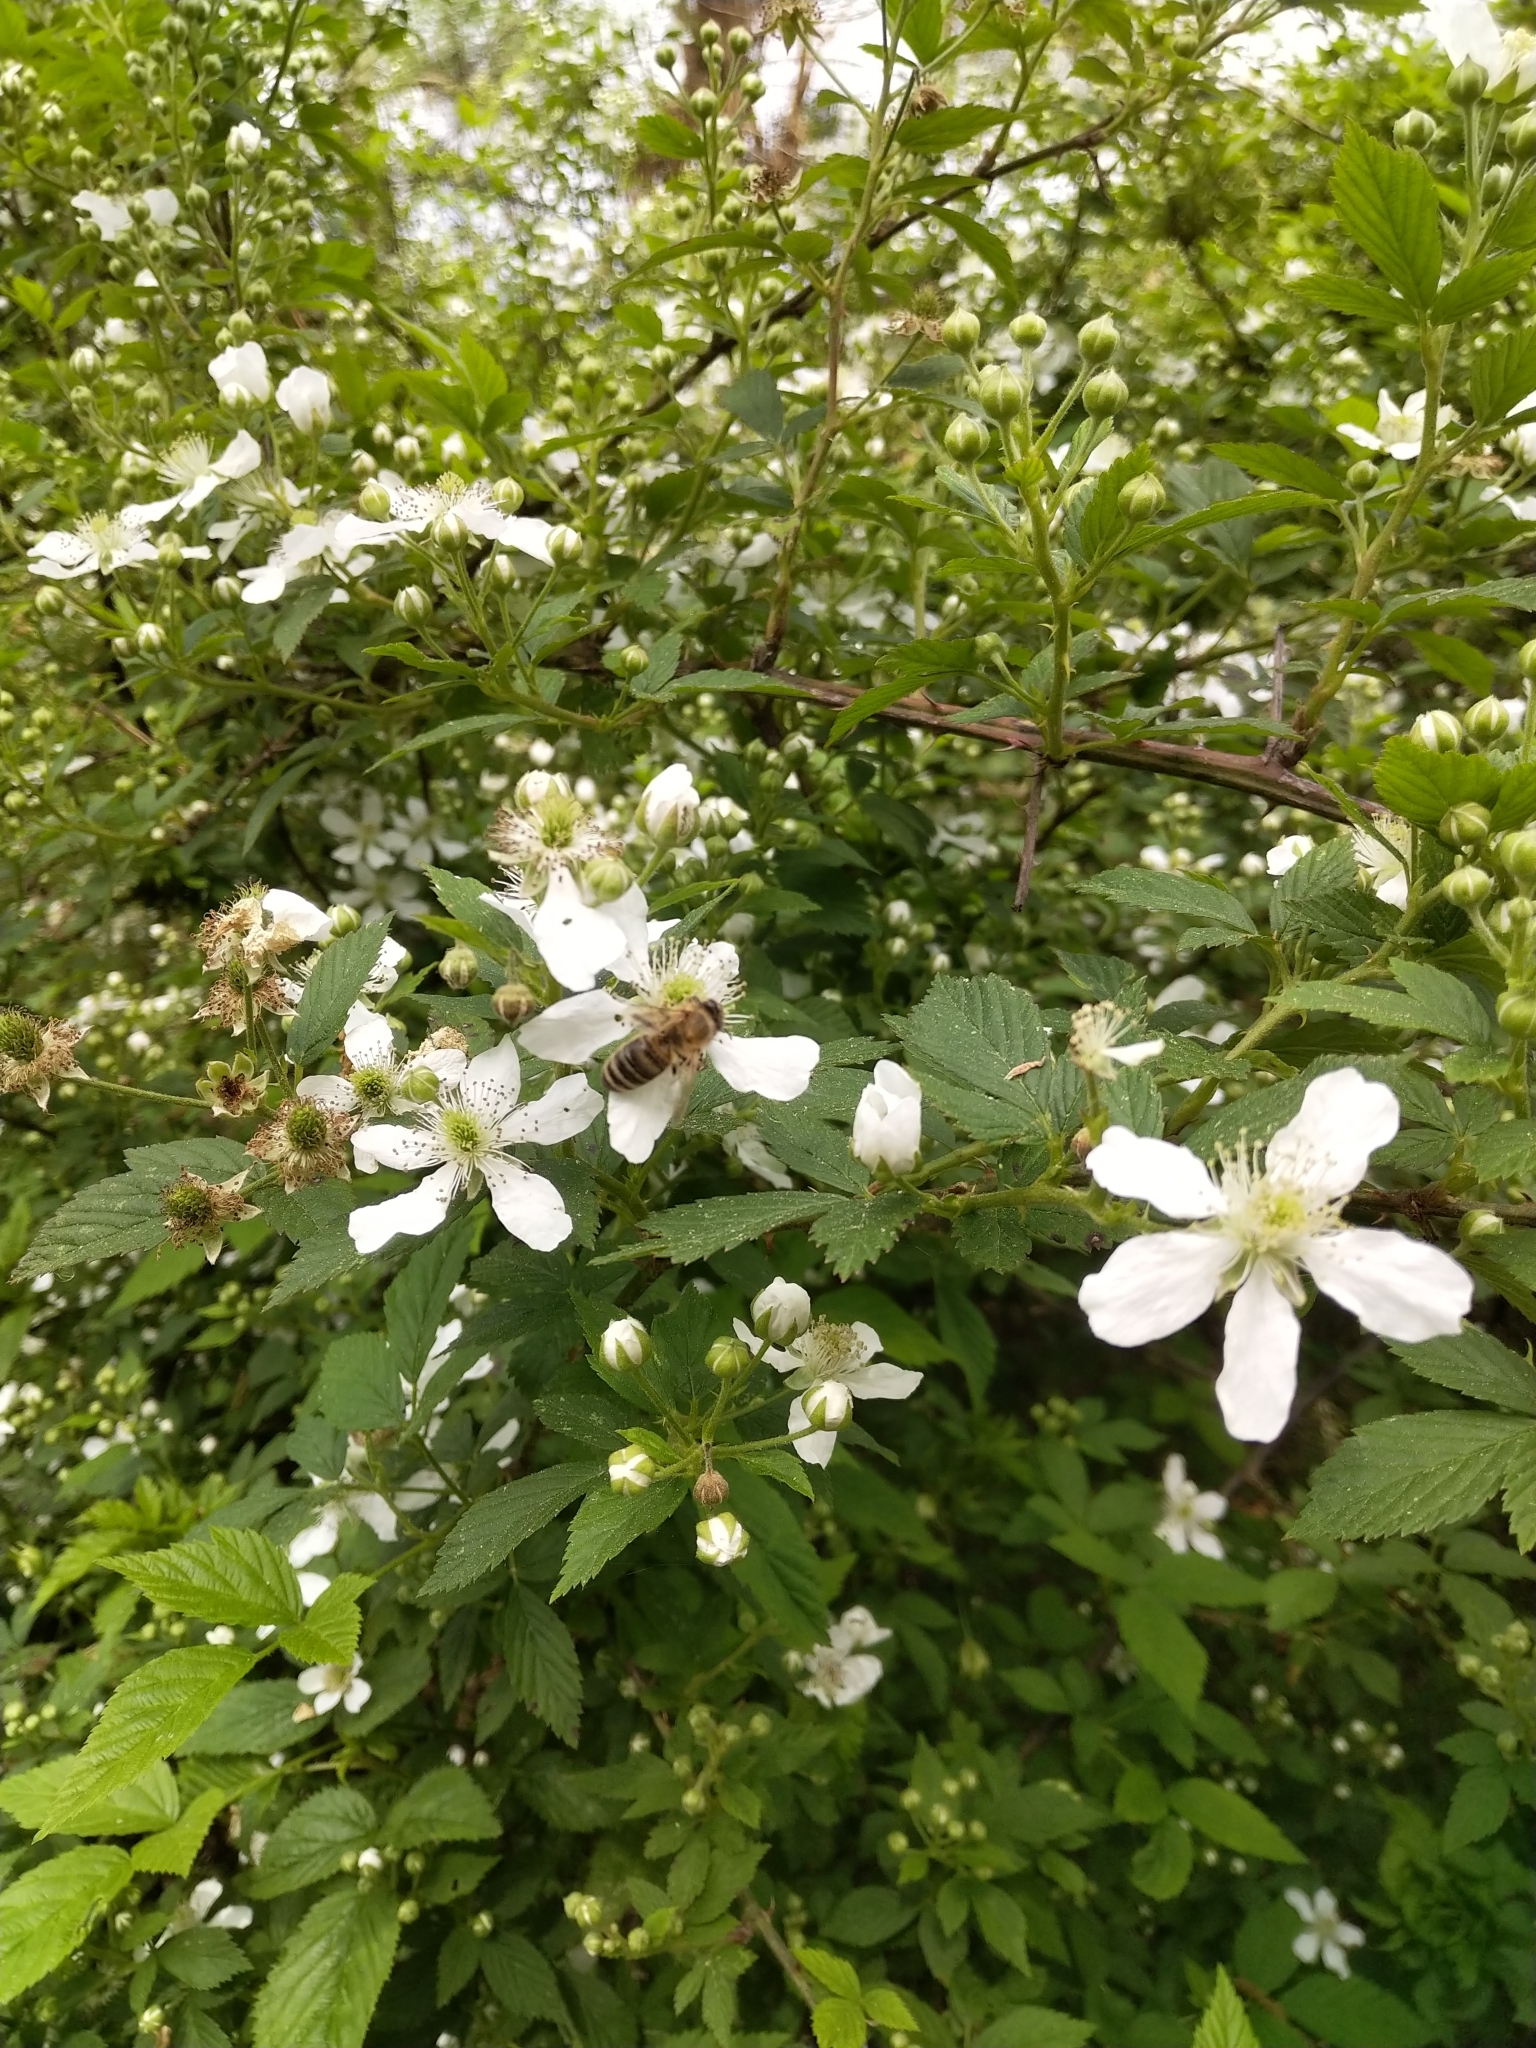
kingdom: Animalia
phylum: Arthropoda
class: Insecta
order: Hymenoptera
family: Apidae
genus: Apis
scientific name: Apis mellifera
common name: Honey bee
